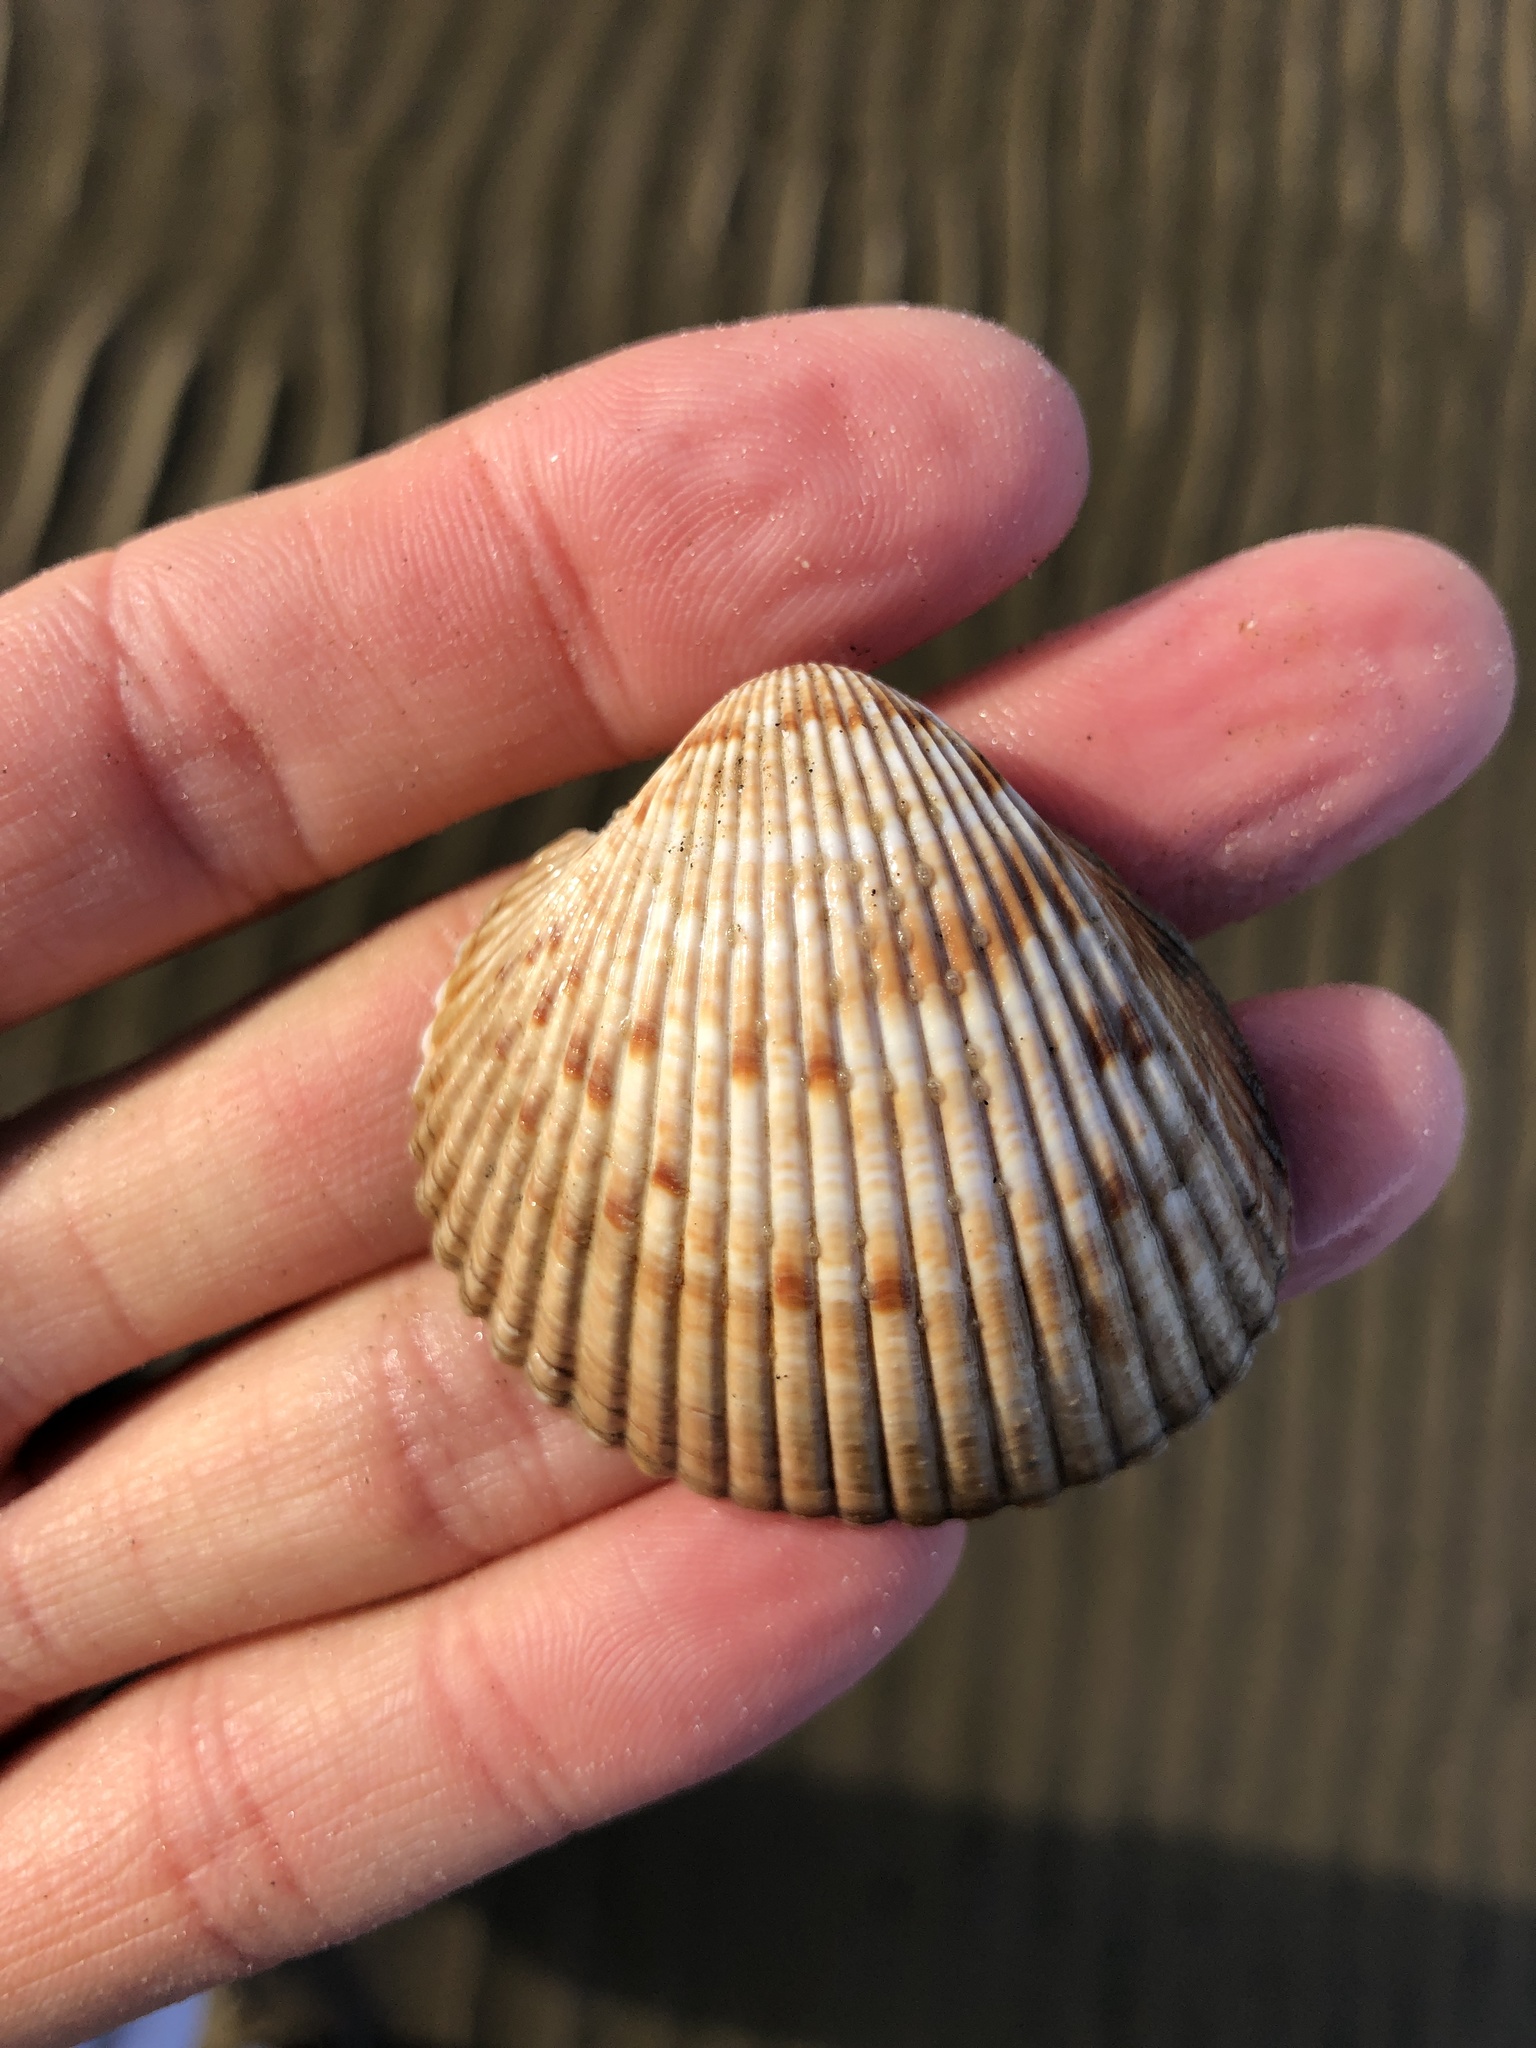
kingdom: Animalia
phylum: Mollusca
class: Bivalvia
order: Cardiida
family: Cardiidae
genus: Dinocardium
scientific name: Dinocardium robustum
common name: Atlantic giant cockle
